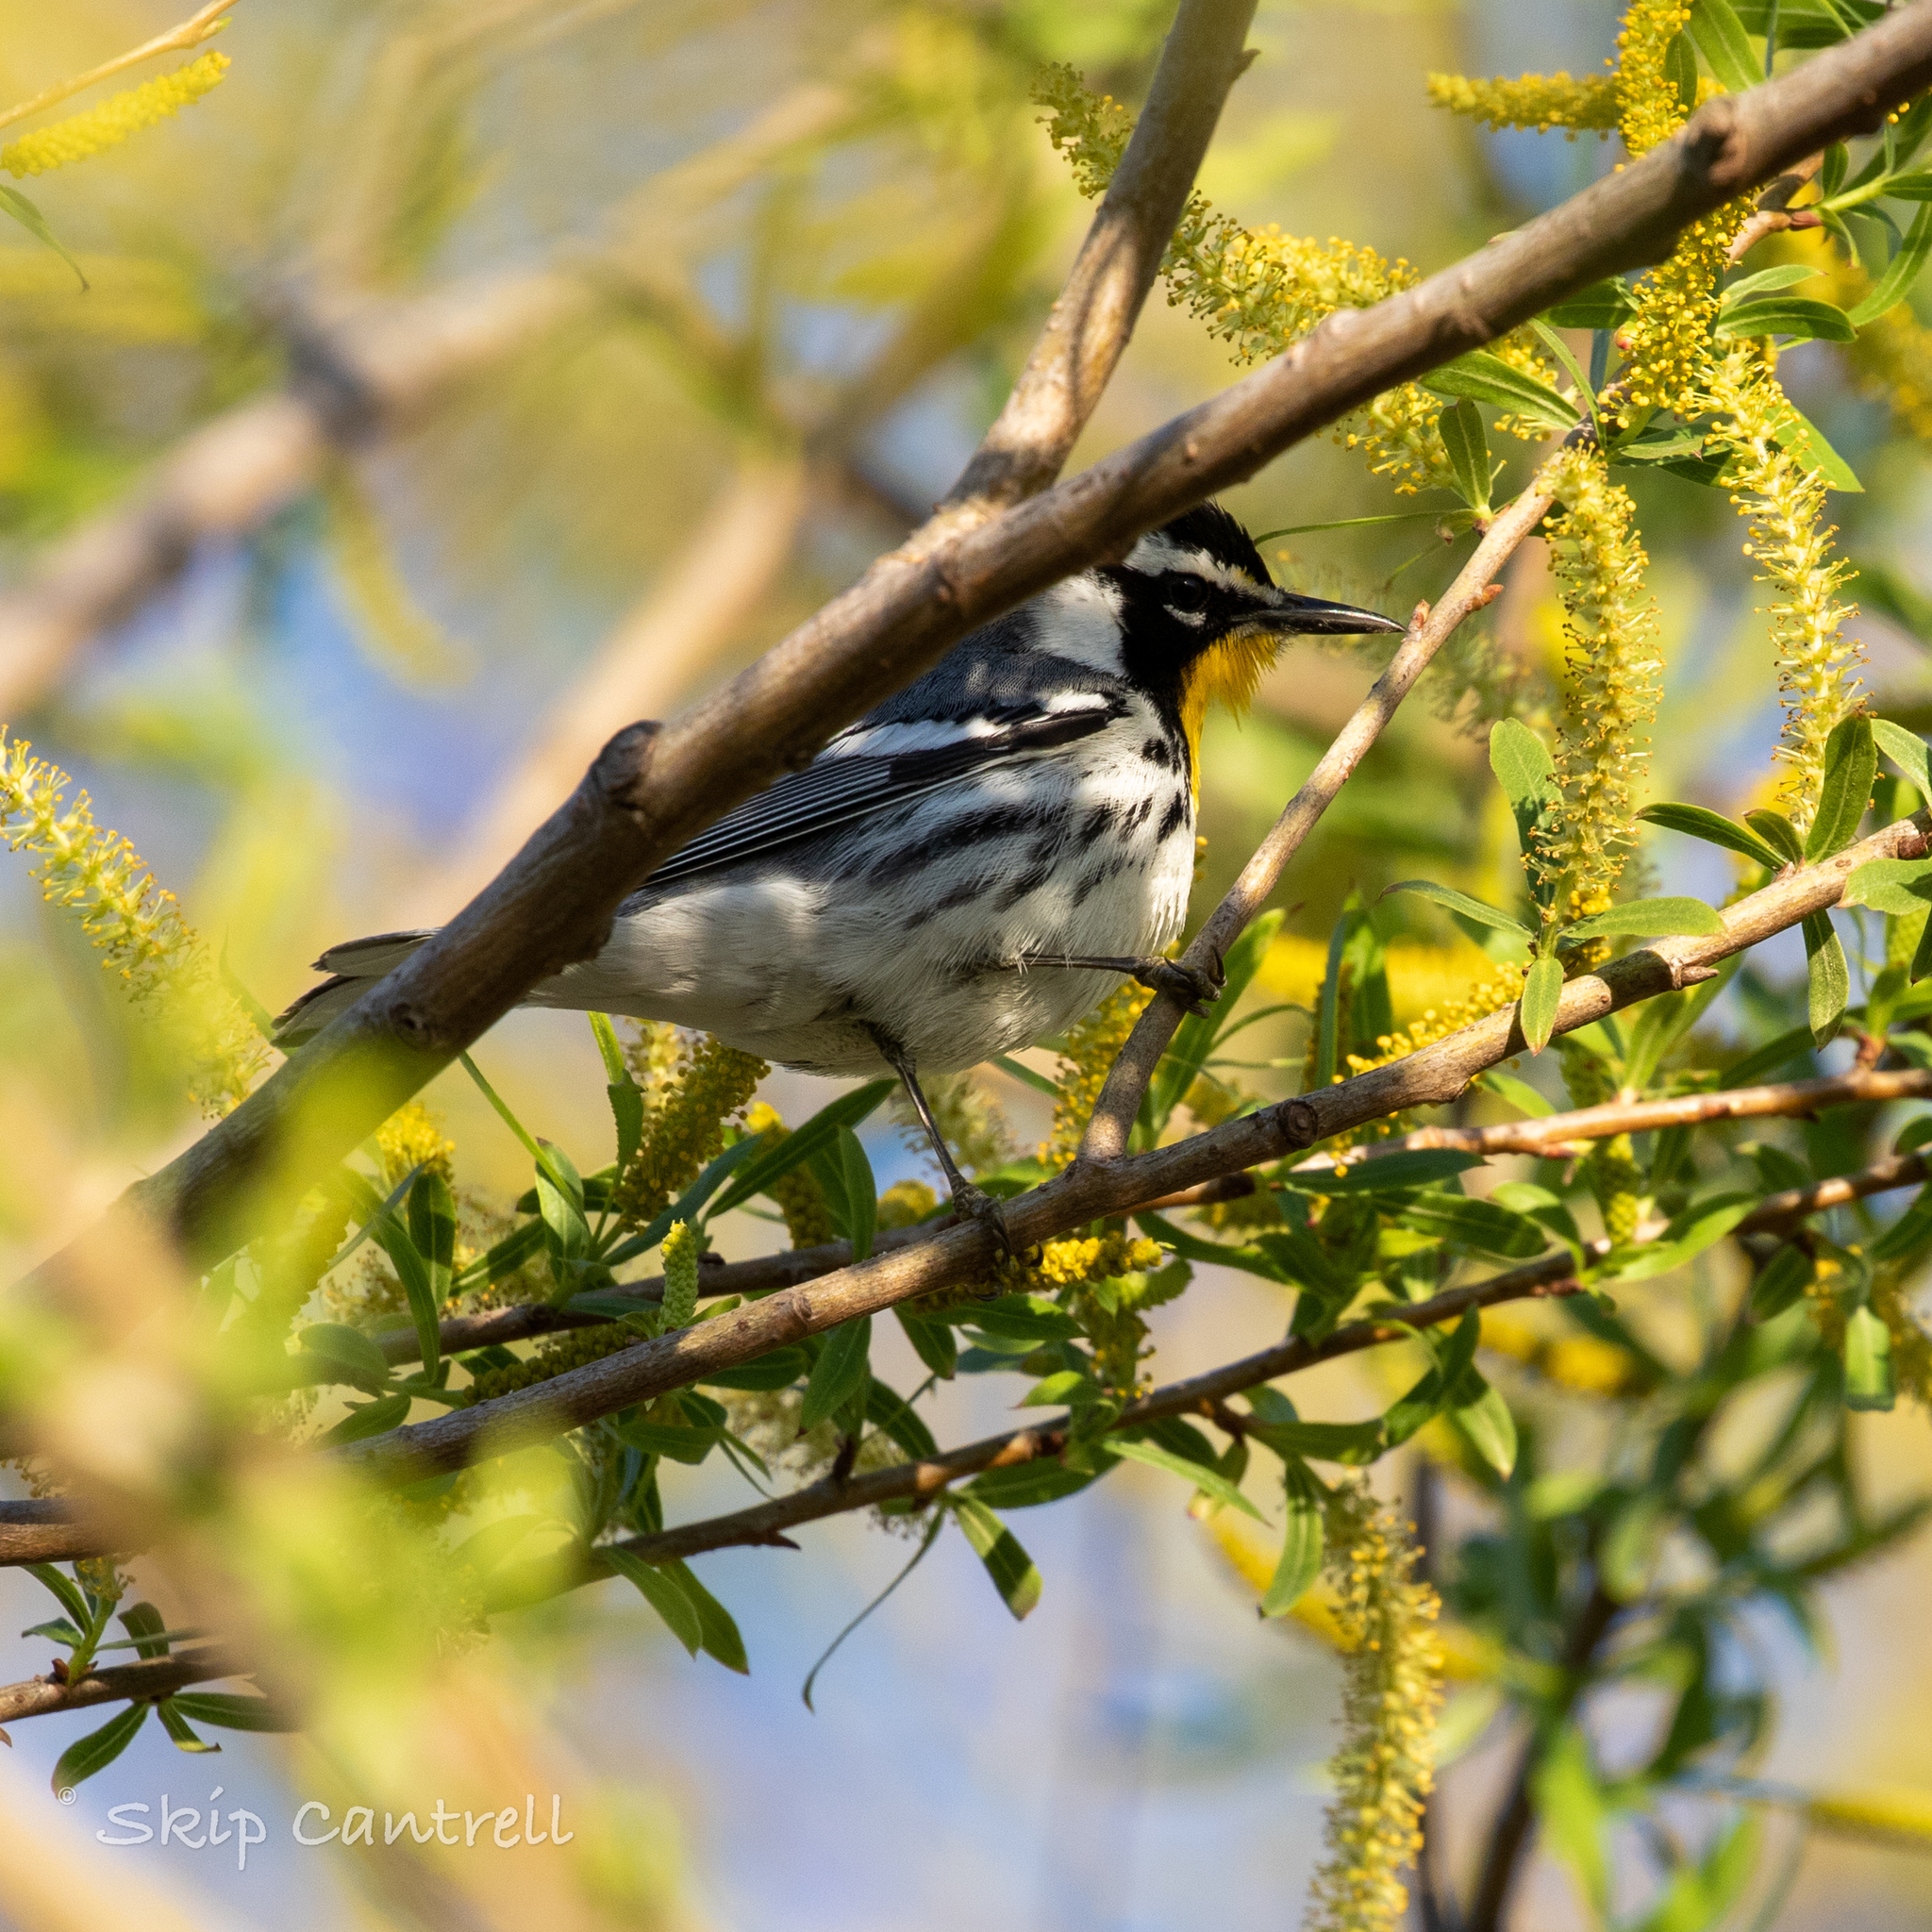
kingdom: Animalia
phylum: Chordata
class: Aves
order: Passeriformes
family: Parulidae
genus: Setophaga
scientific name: Setophaga dominica
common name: Yellow-throated warbler
